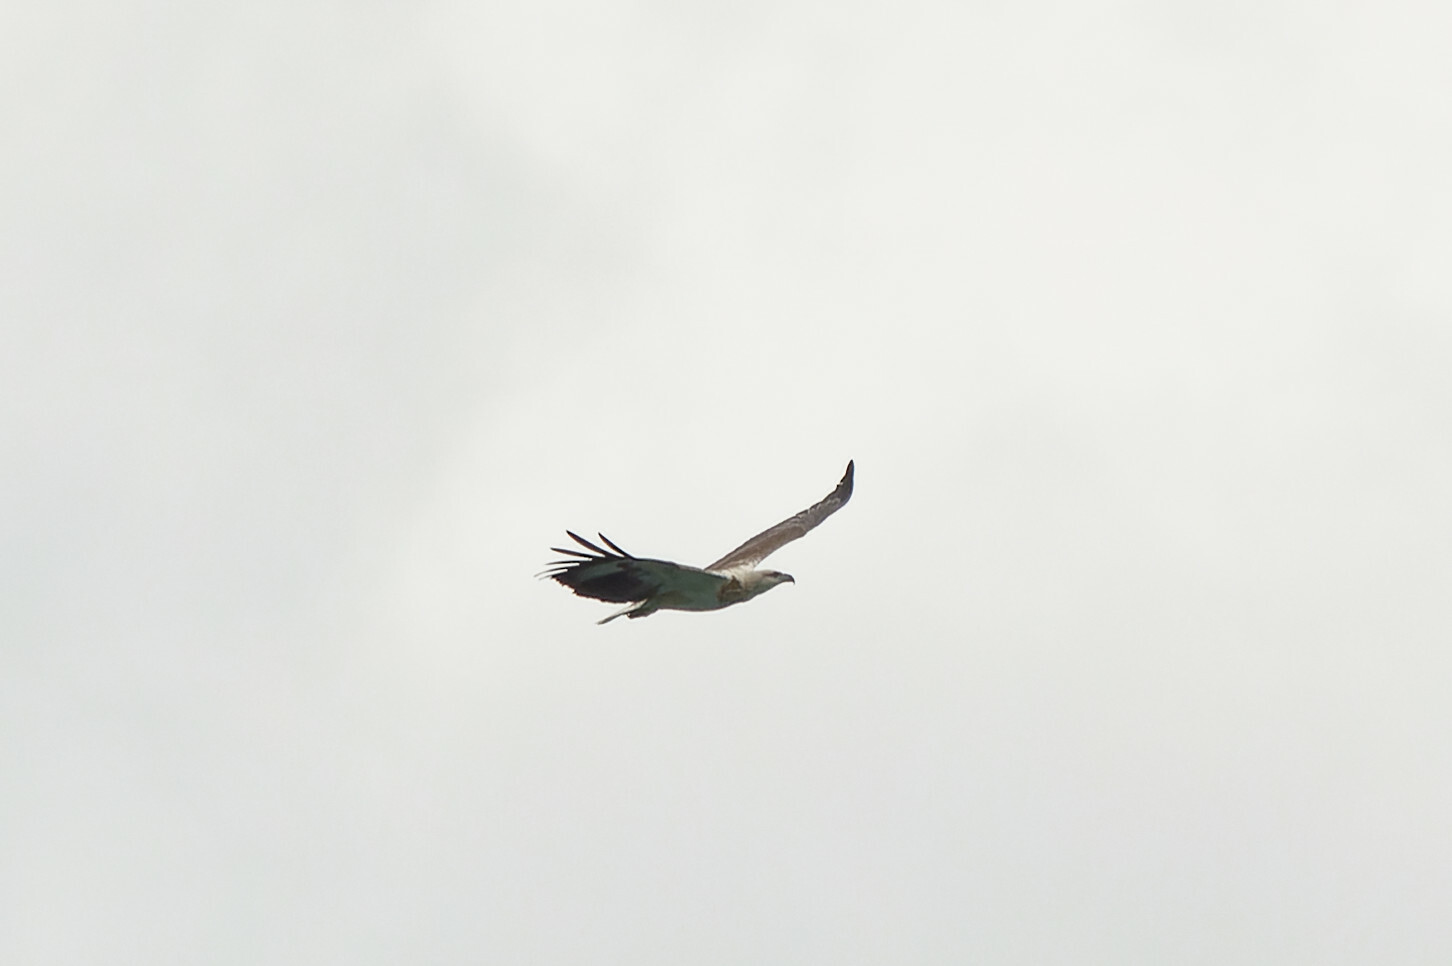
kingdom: Animalia
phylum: Chordata
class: Aves
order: Accipitriformes
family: Accipitridae
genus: Haliaeetus
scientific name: Haliaeetus leucogaster
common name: White-bellied sea eagle
